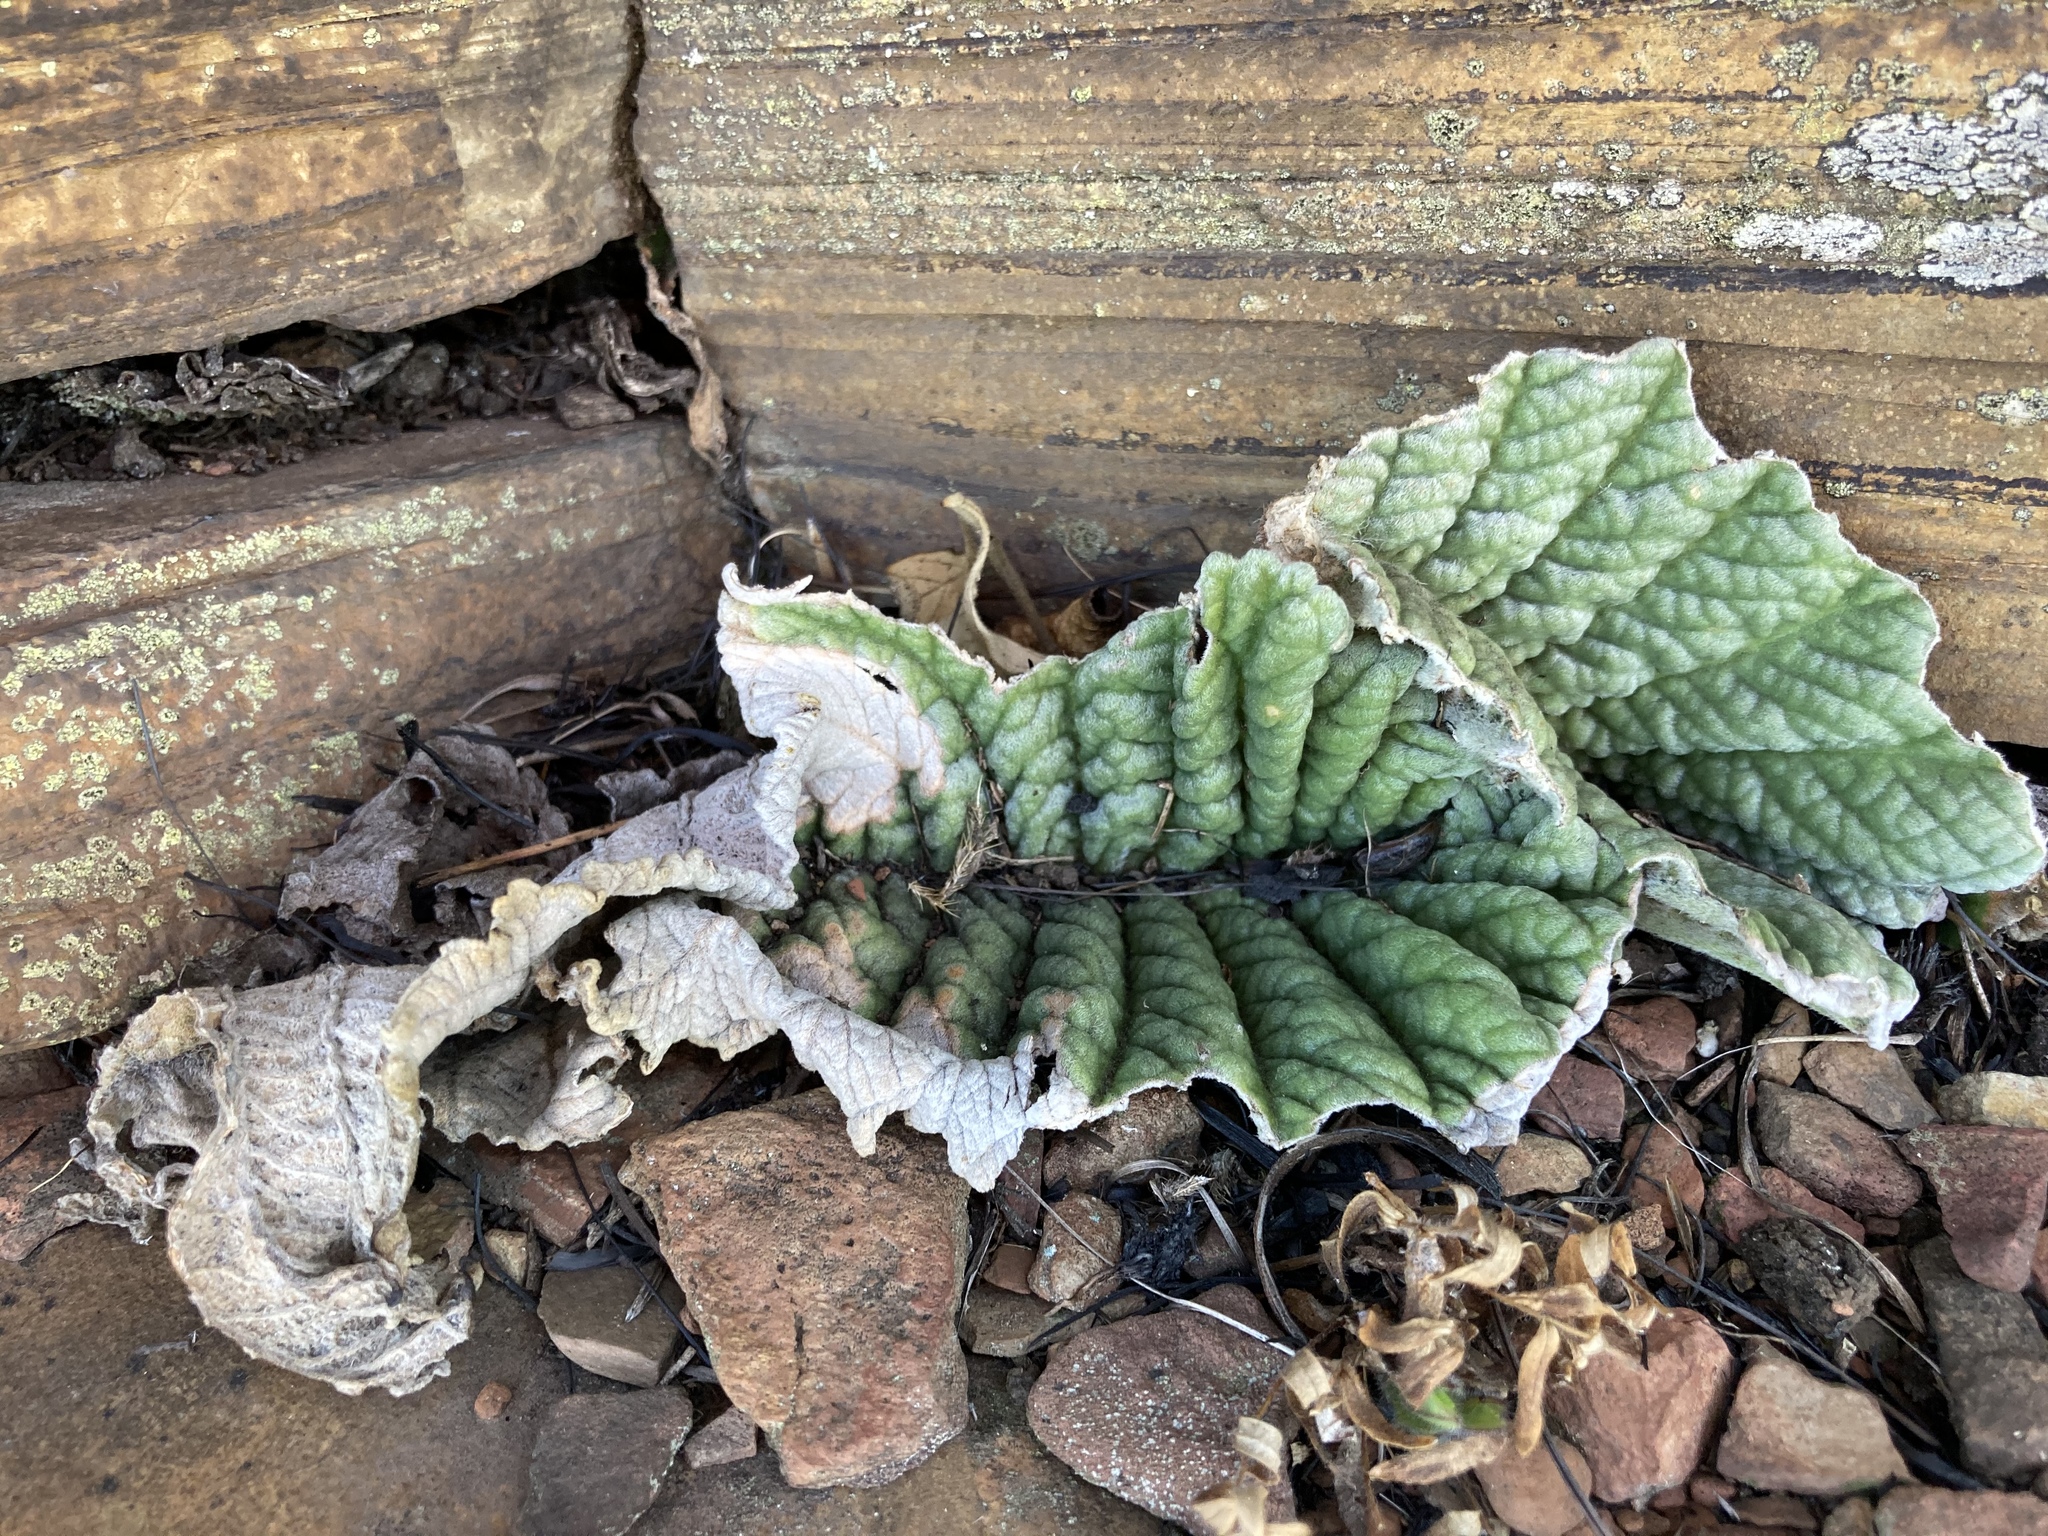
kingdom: Plantae
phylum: Tracheophyta
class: Magnoliopsida
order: Lamiales
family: Gesneriaceae
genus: Streptocarpus
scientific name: Streptocarpus dunnii
